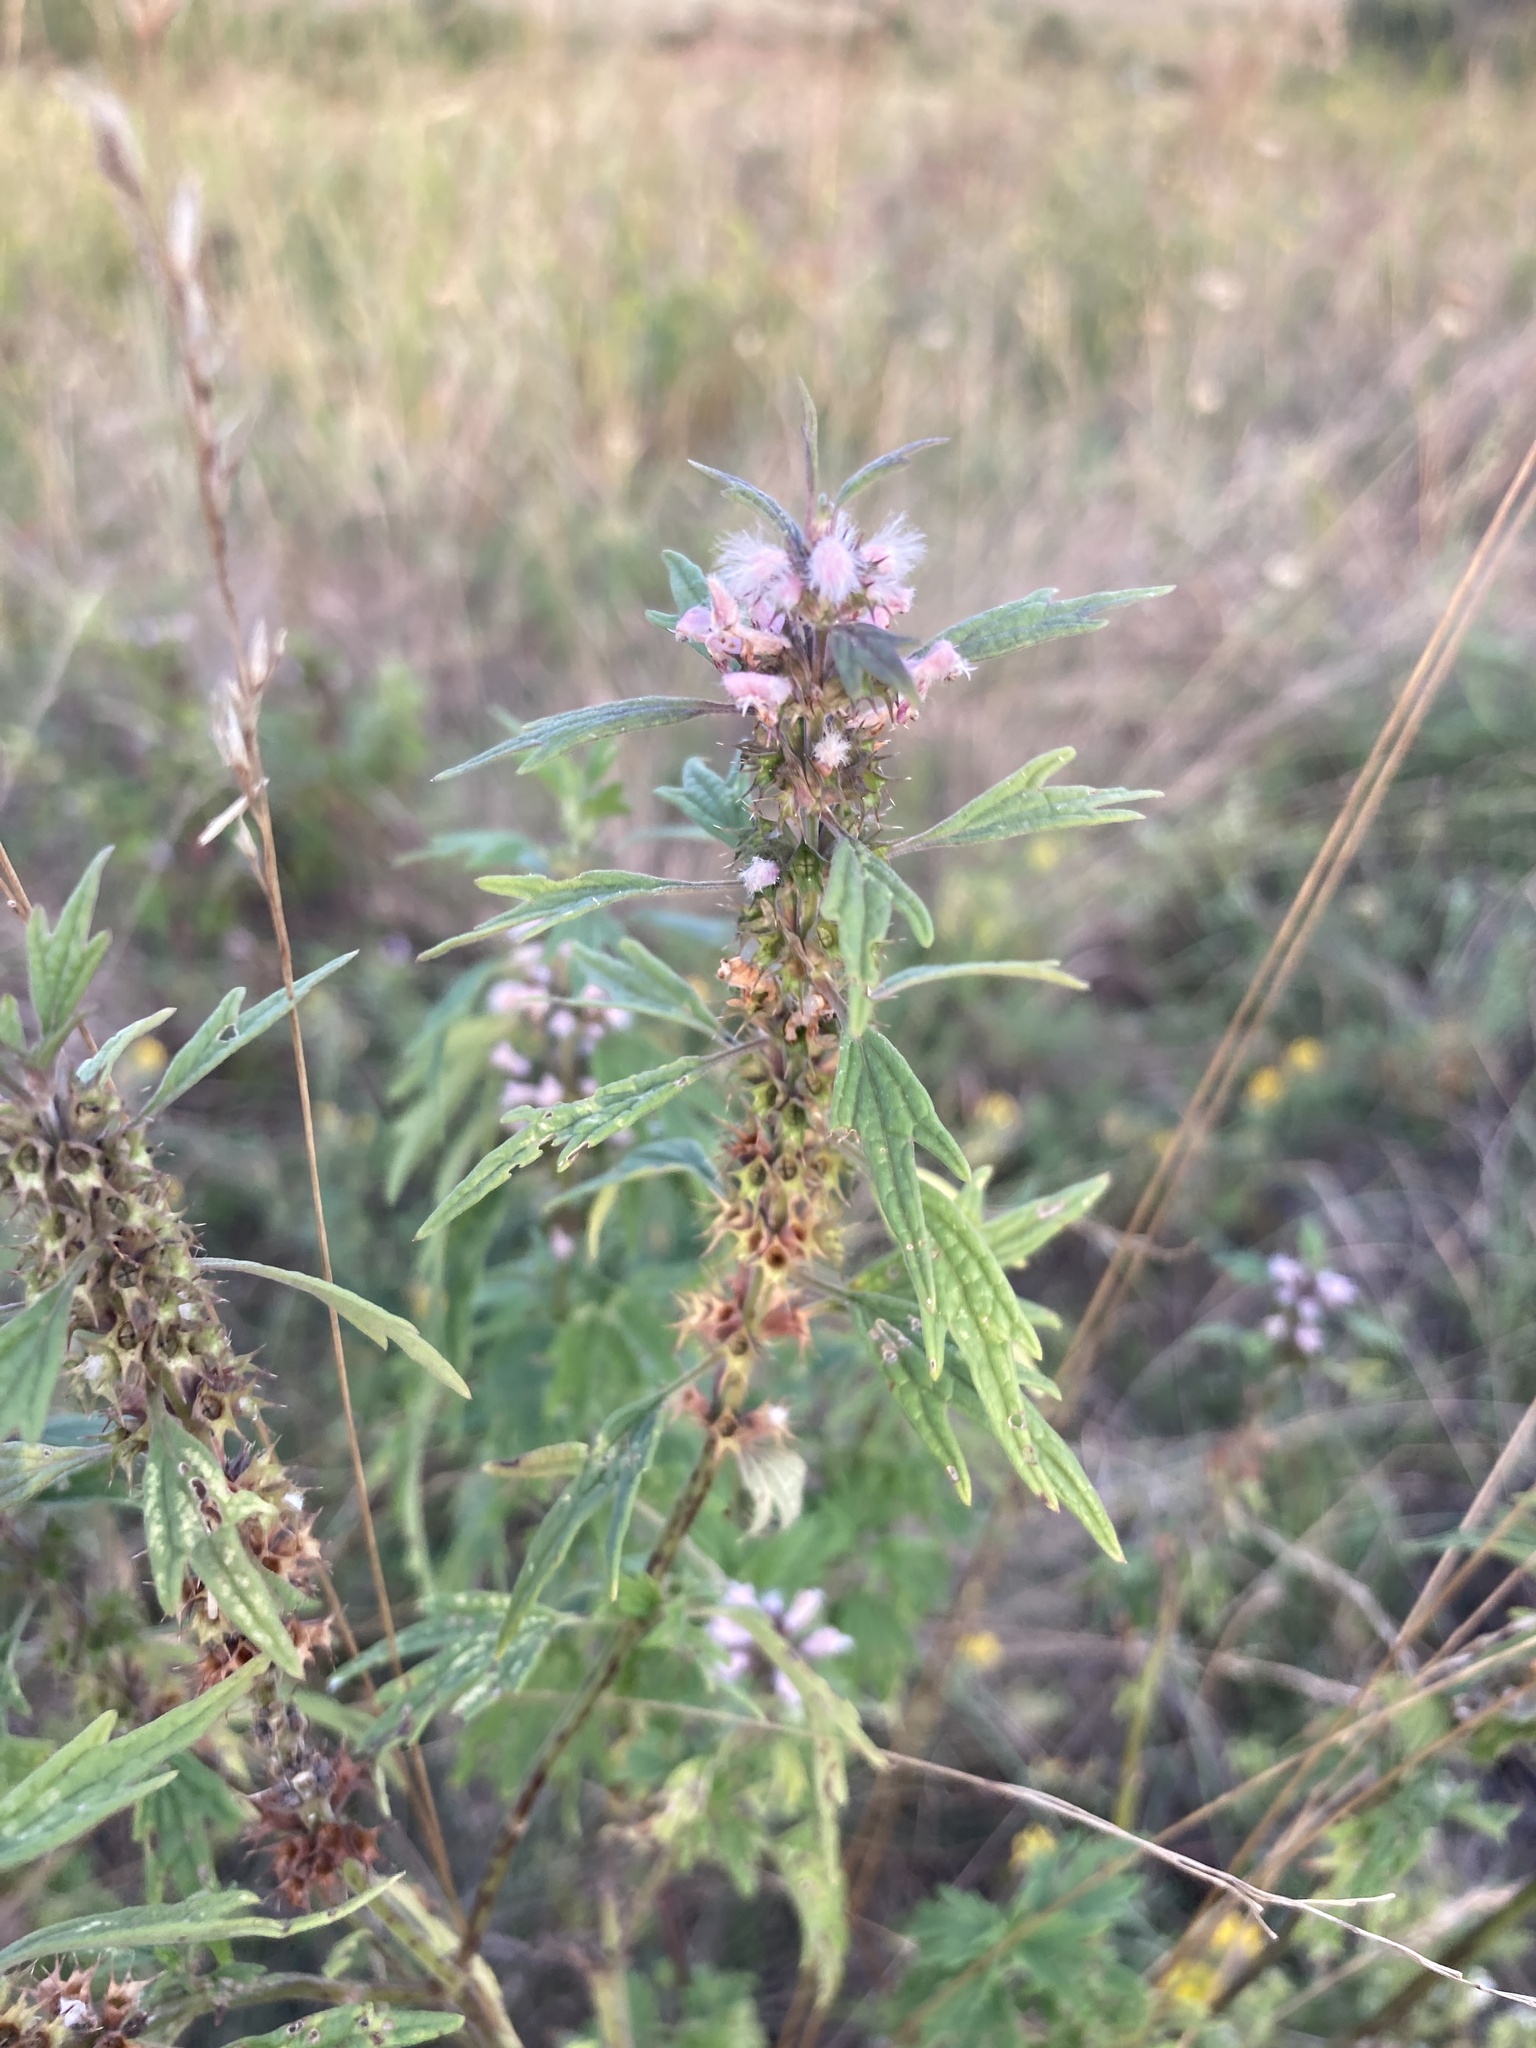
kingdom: Plantae
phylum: Tracheophyta
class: Magnoliopsida
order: Lamiales
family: Lamiaceae
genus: Leonurus
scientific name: Leonurus quinquelobatus
